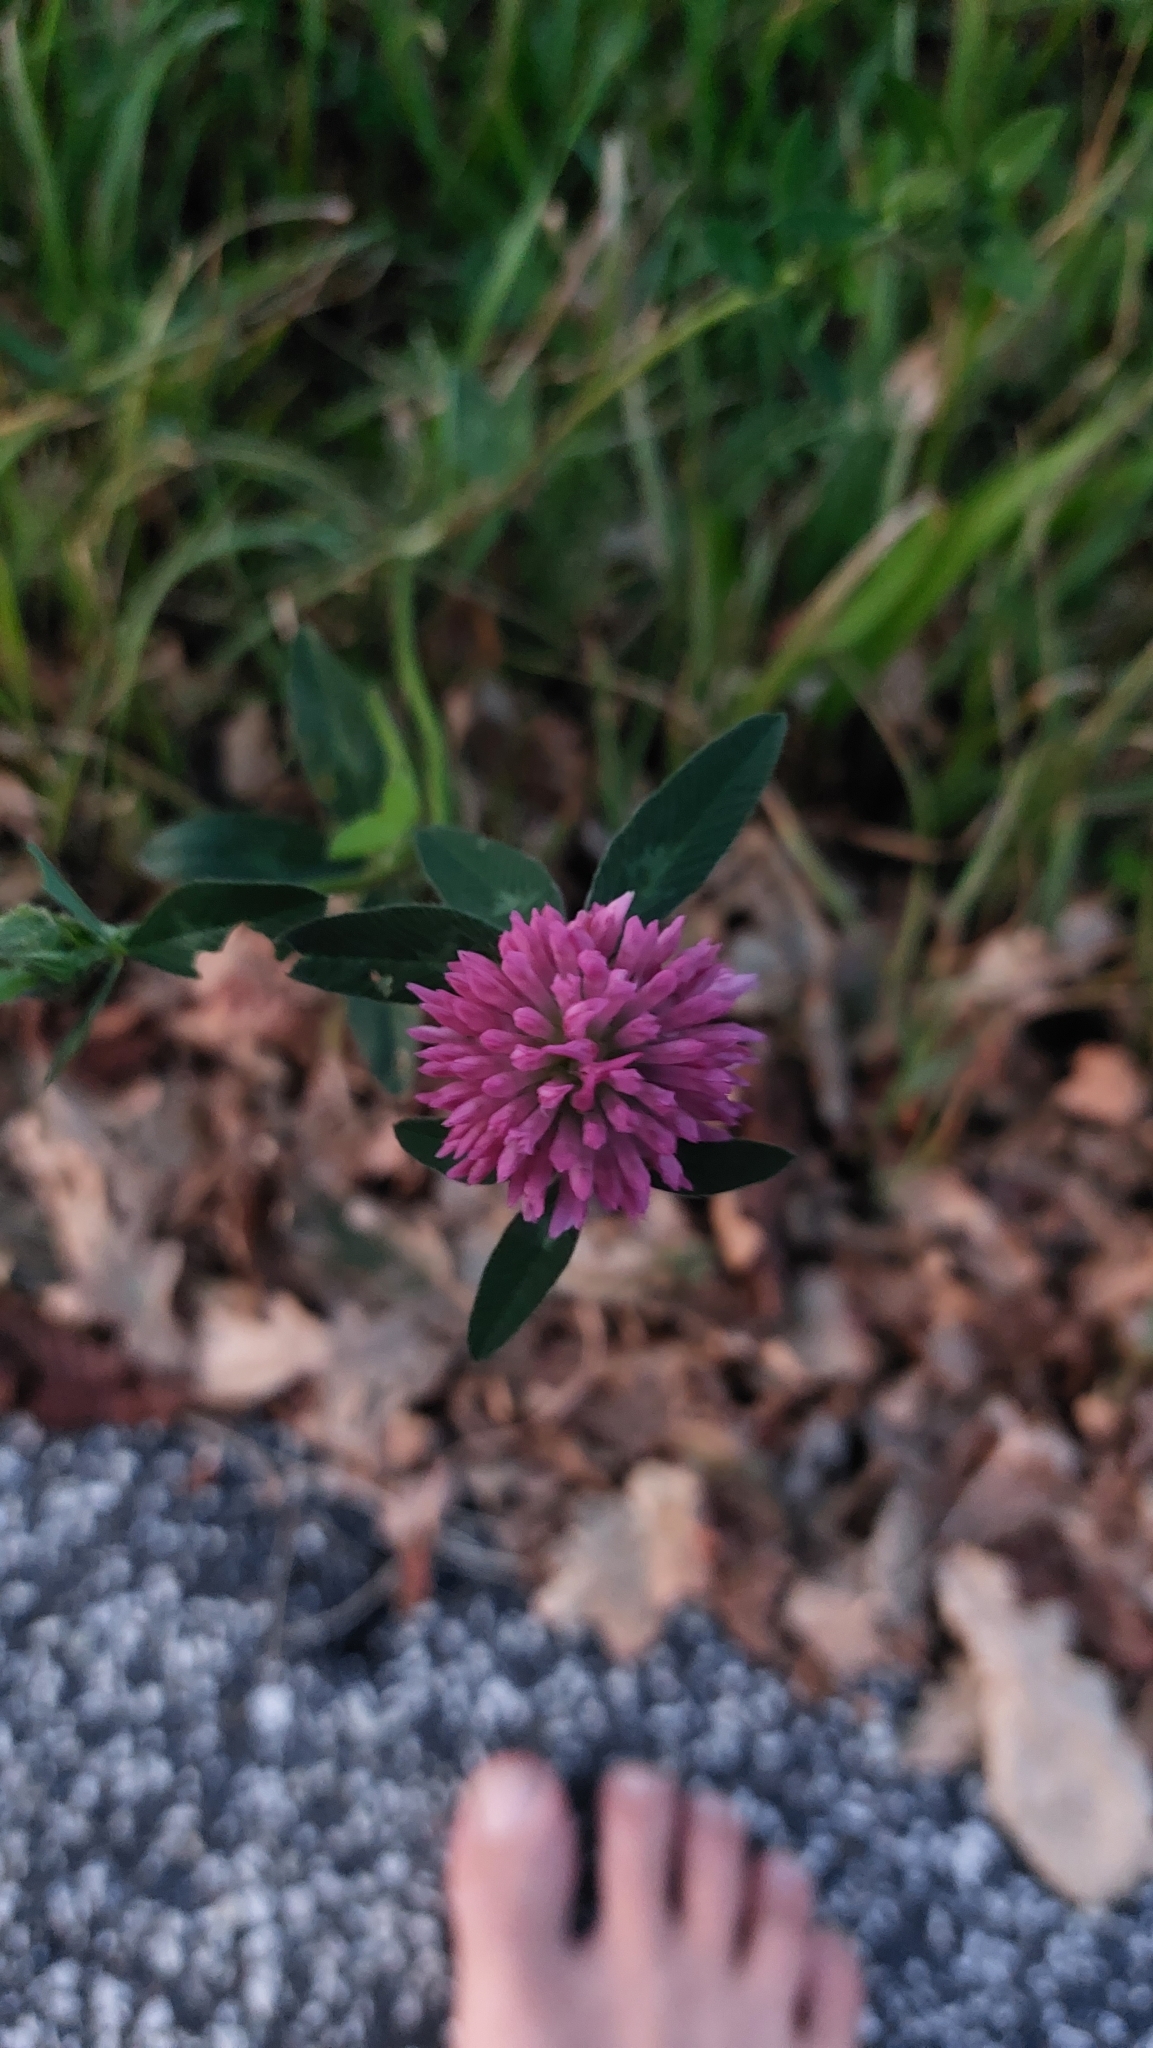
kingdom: Plantae
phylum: Tracheophyta
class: Magnoliopsida
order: Fabales
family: Fabaceae
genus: Trifolium
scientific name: Trifolium pratense
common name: Red clover
